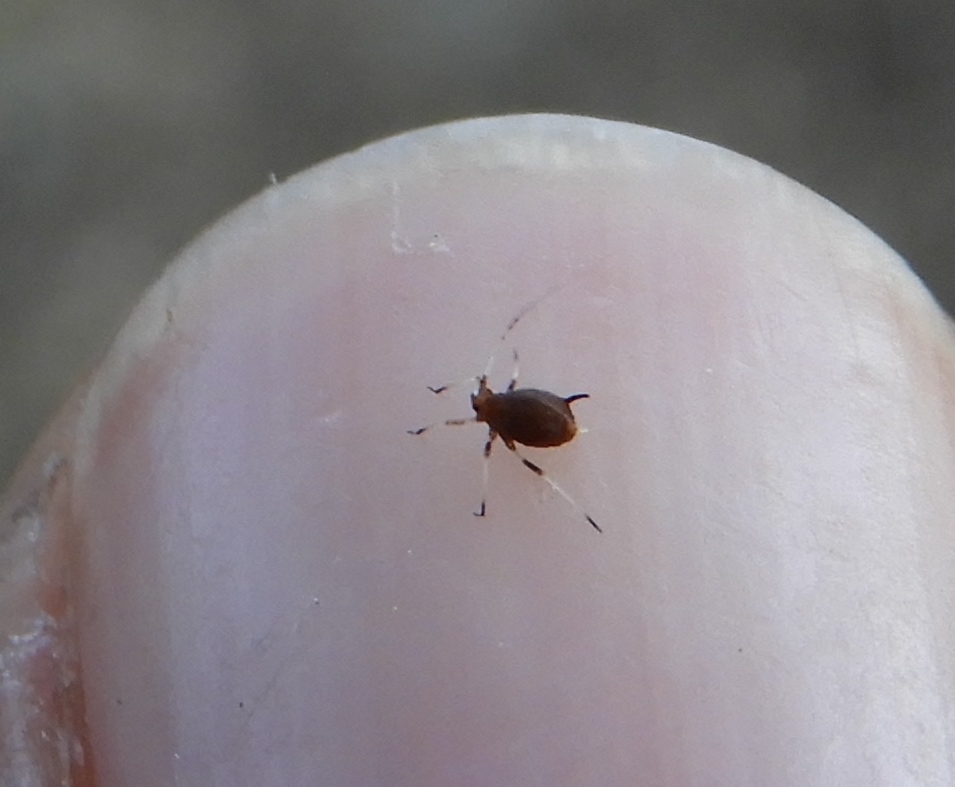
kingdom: Animalia
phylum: Arthropoda
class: Insecta
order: Hemiptera
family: Aphididae
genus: Hysteroneura
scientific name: Hysteroneura setariae
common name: Rusty plum aphid
